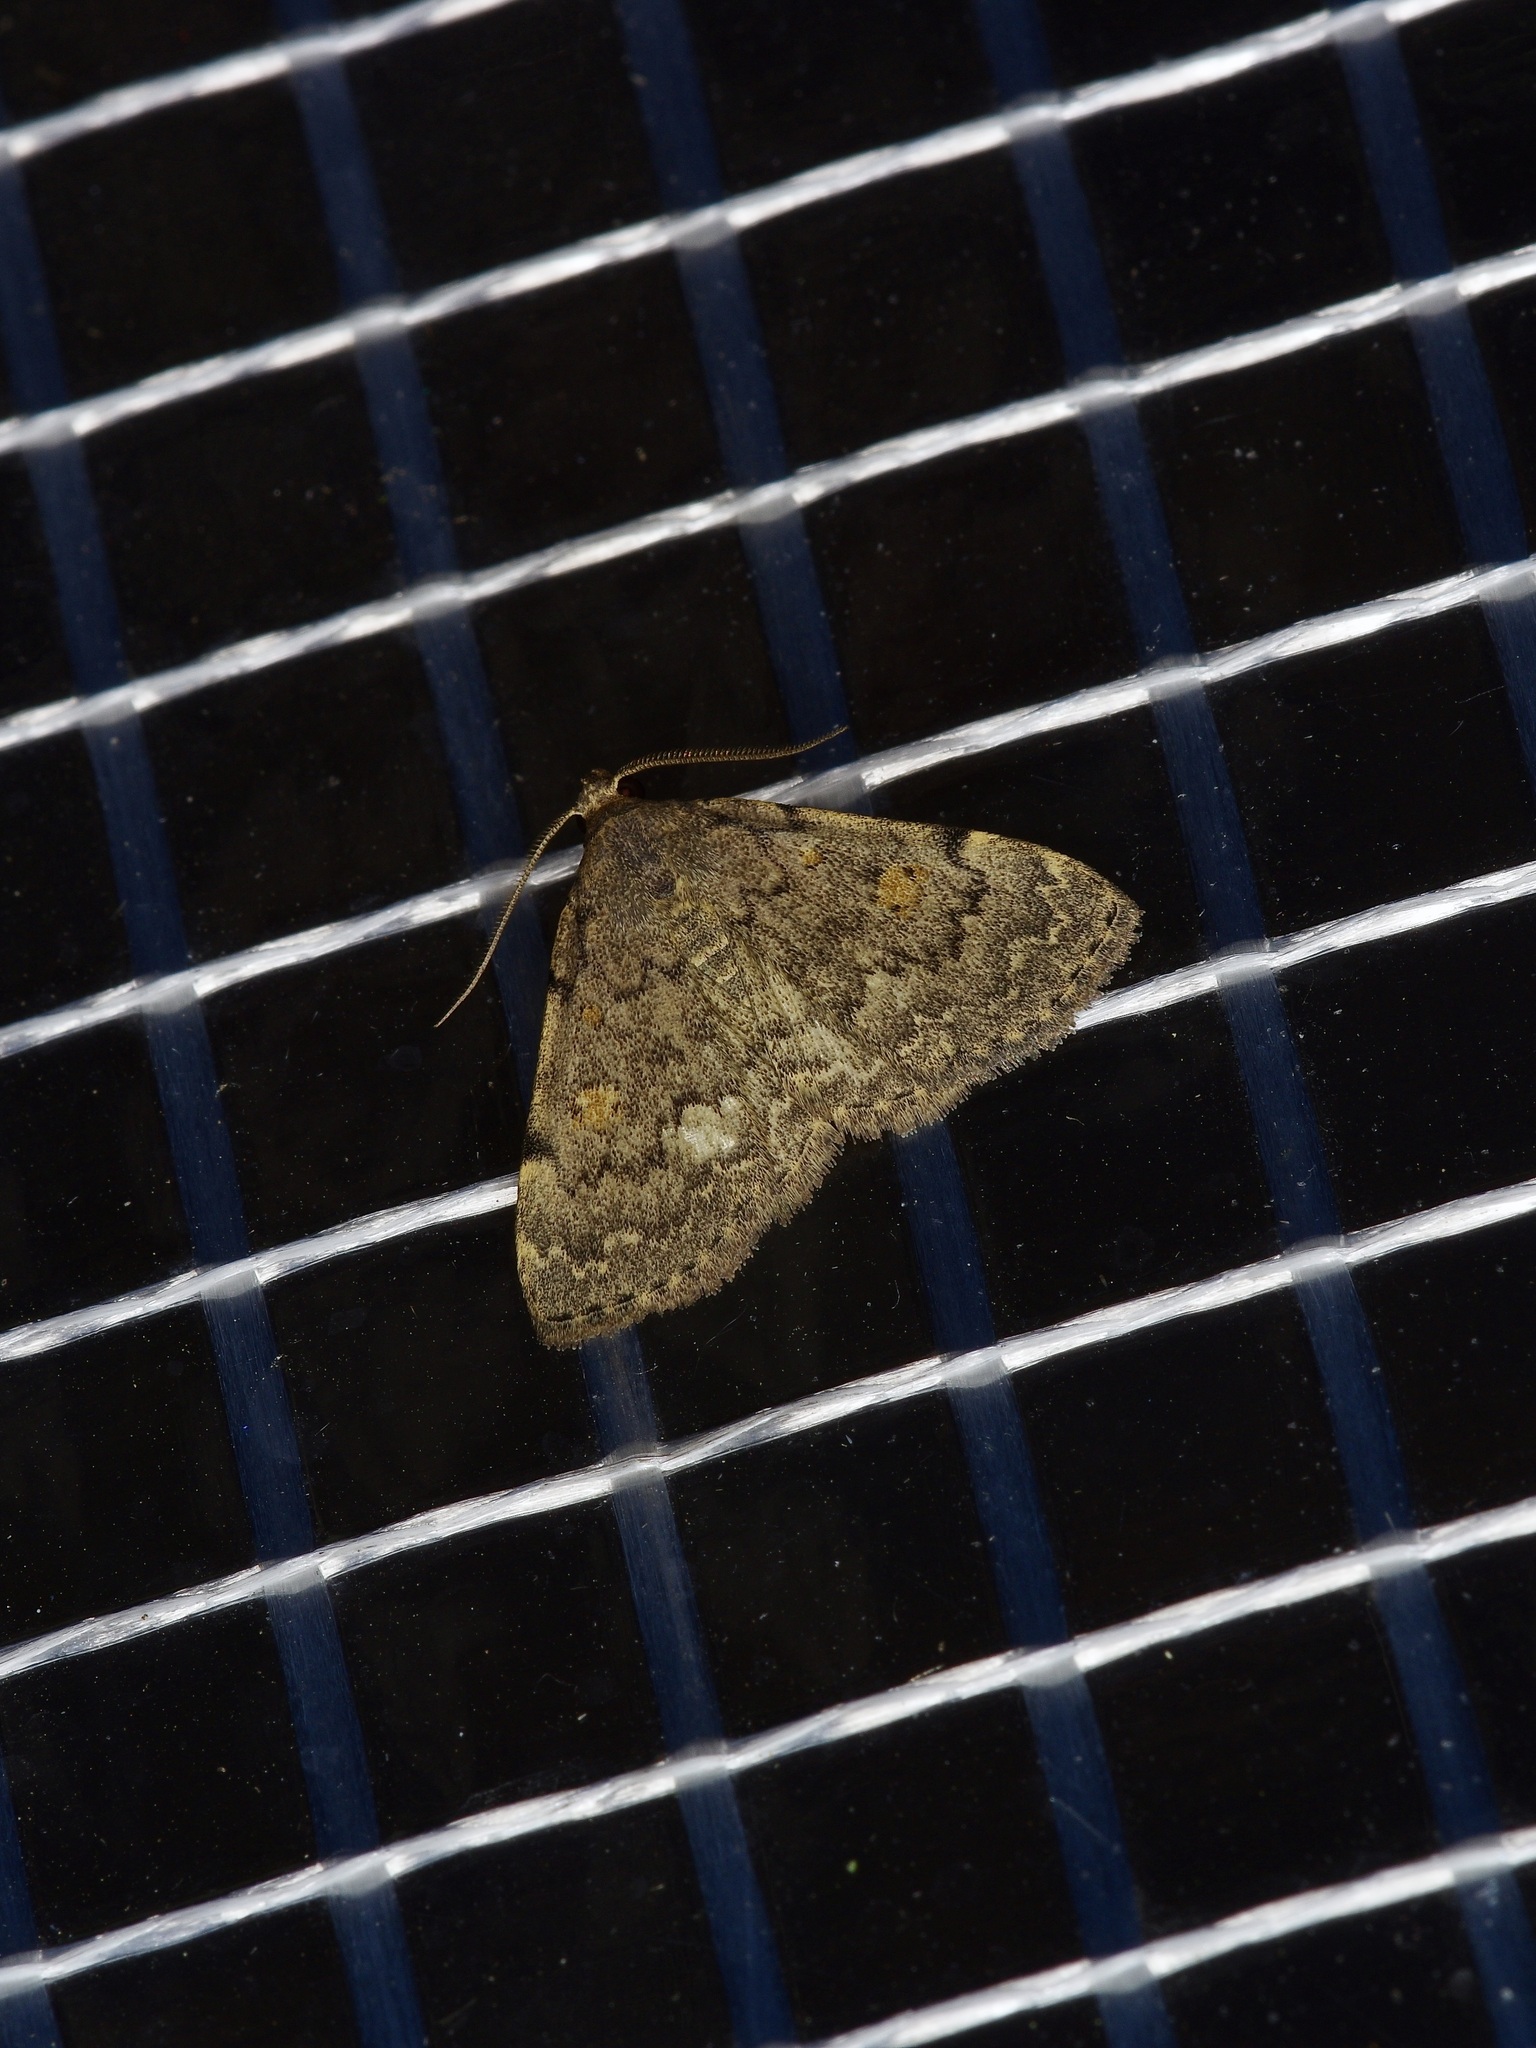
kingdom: Animalia
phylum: Arthropoda
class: Insecta
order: Lepidoptera
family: Erebidae
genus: Idia
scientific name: Idia aemula
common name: Common idia moth
